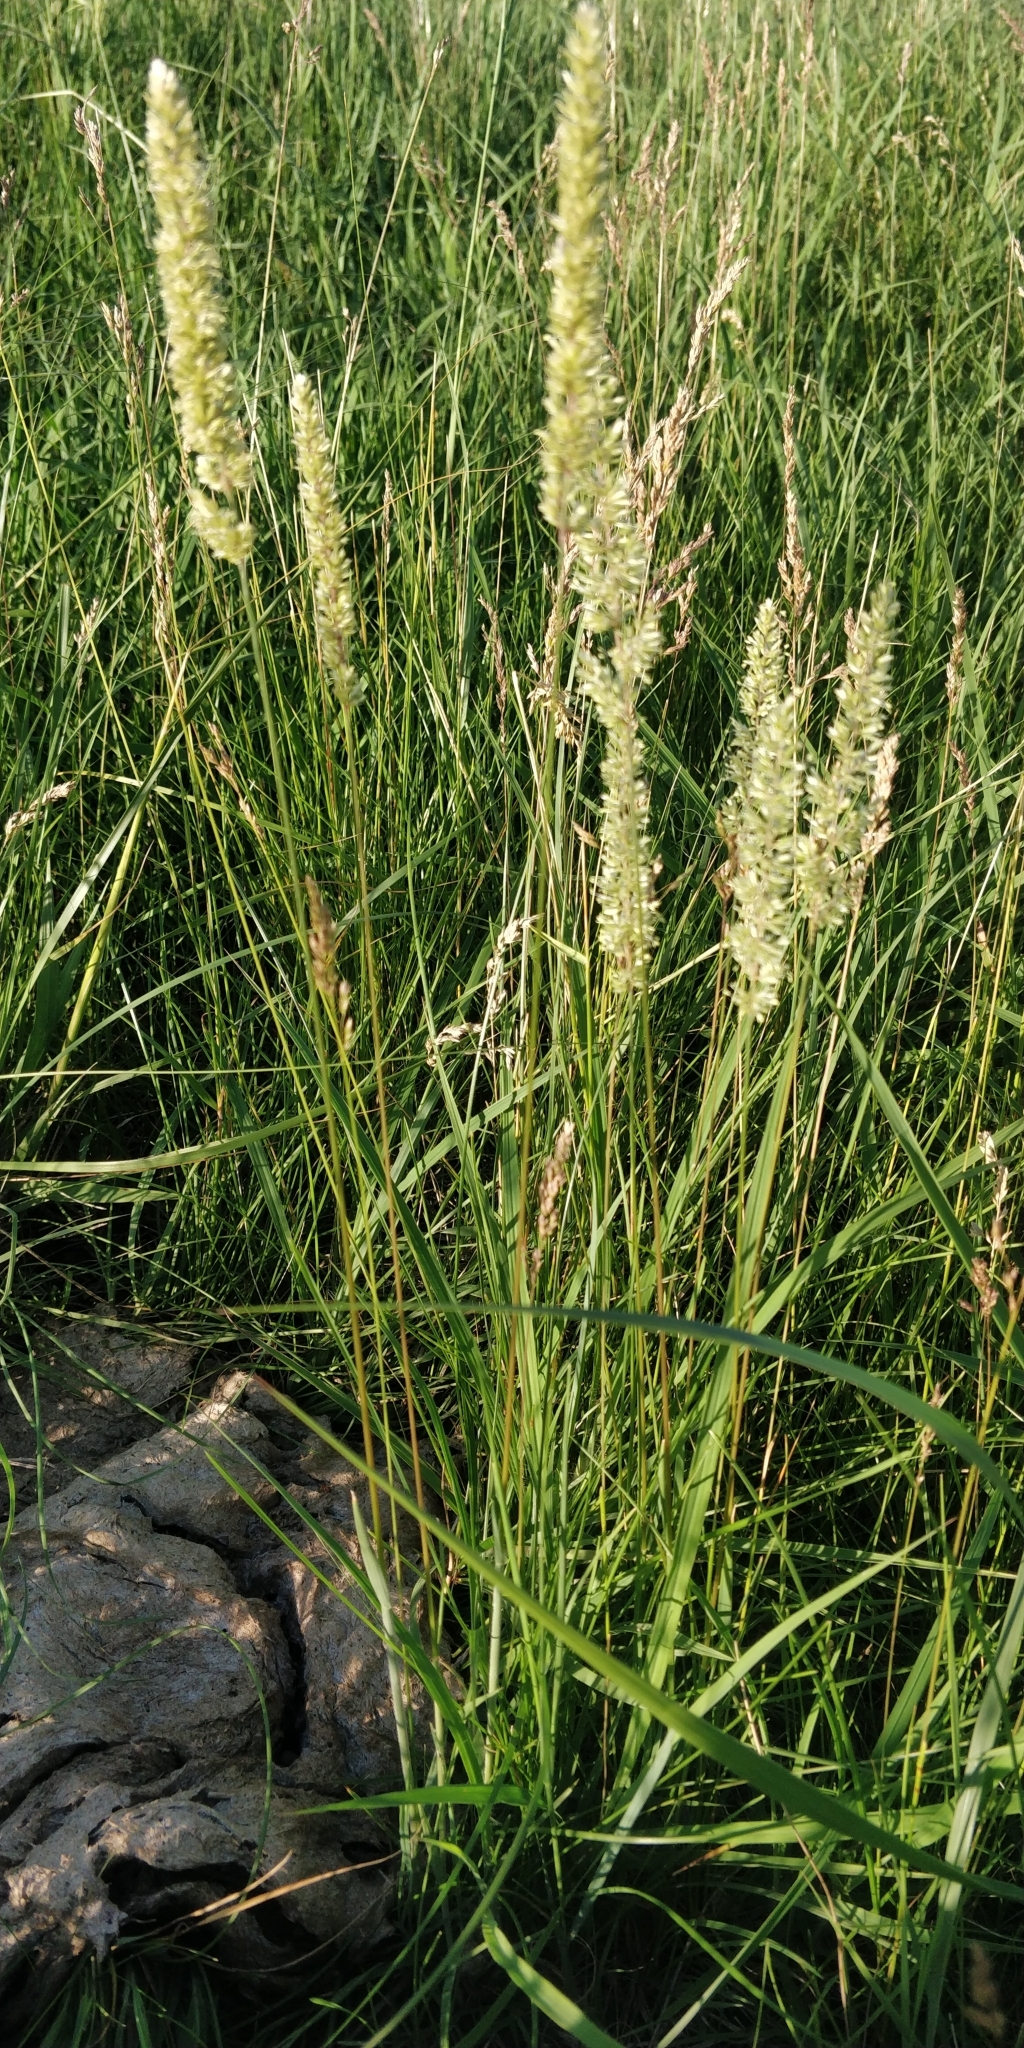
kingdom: Plantae
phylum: Tracheophyta
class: Liliopsida
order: Poales
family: Poaceae
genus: Koeleria
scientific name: Koeleria macrantha
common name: Crested hair-grass
